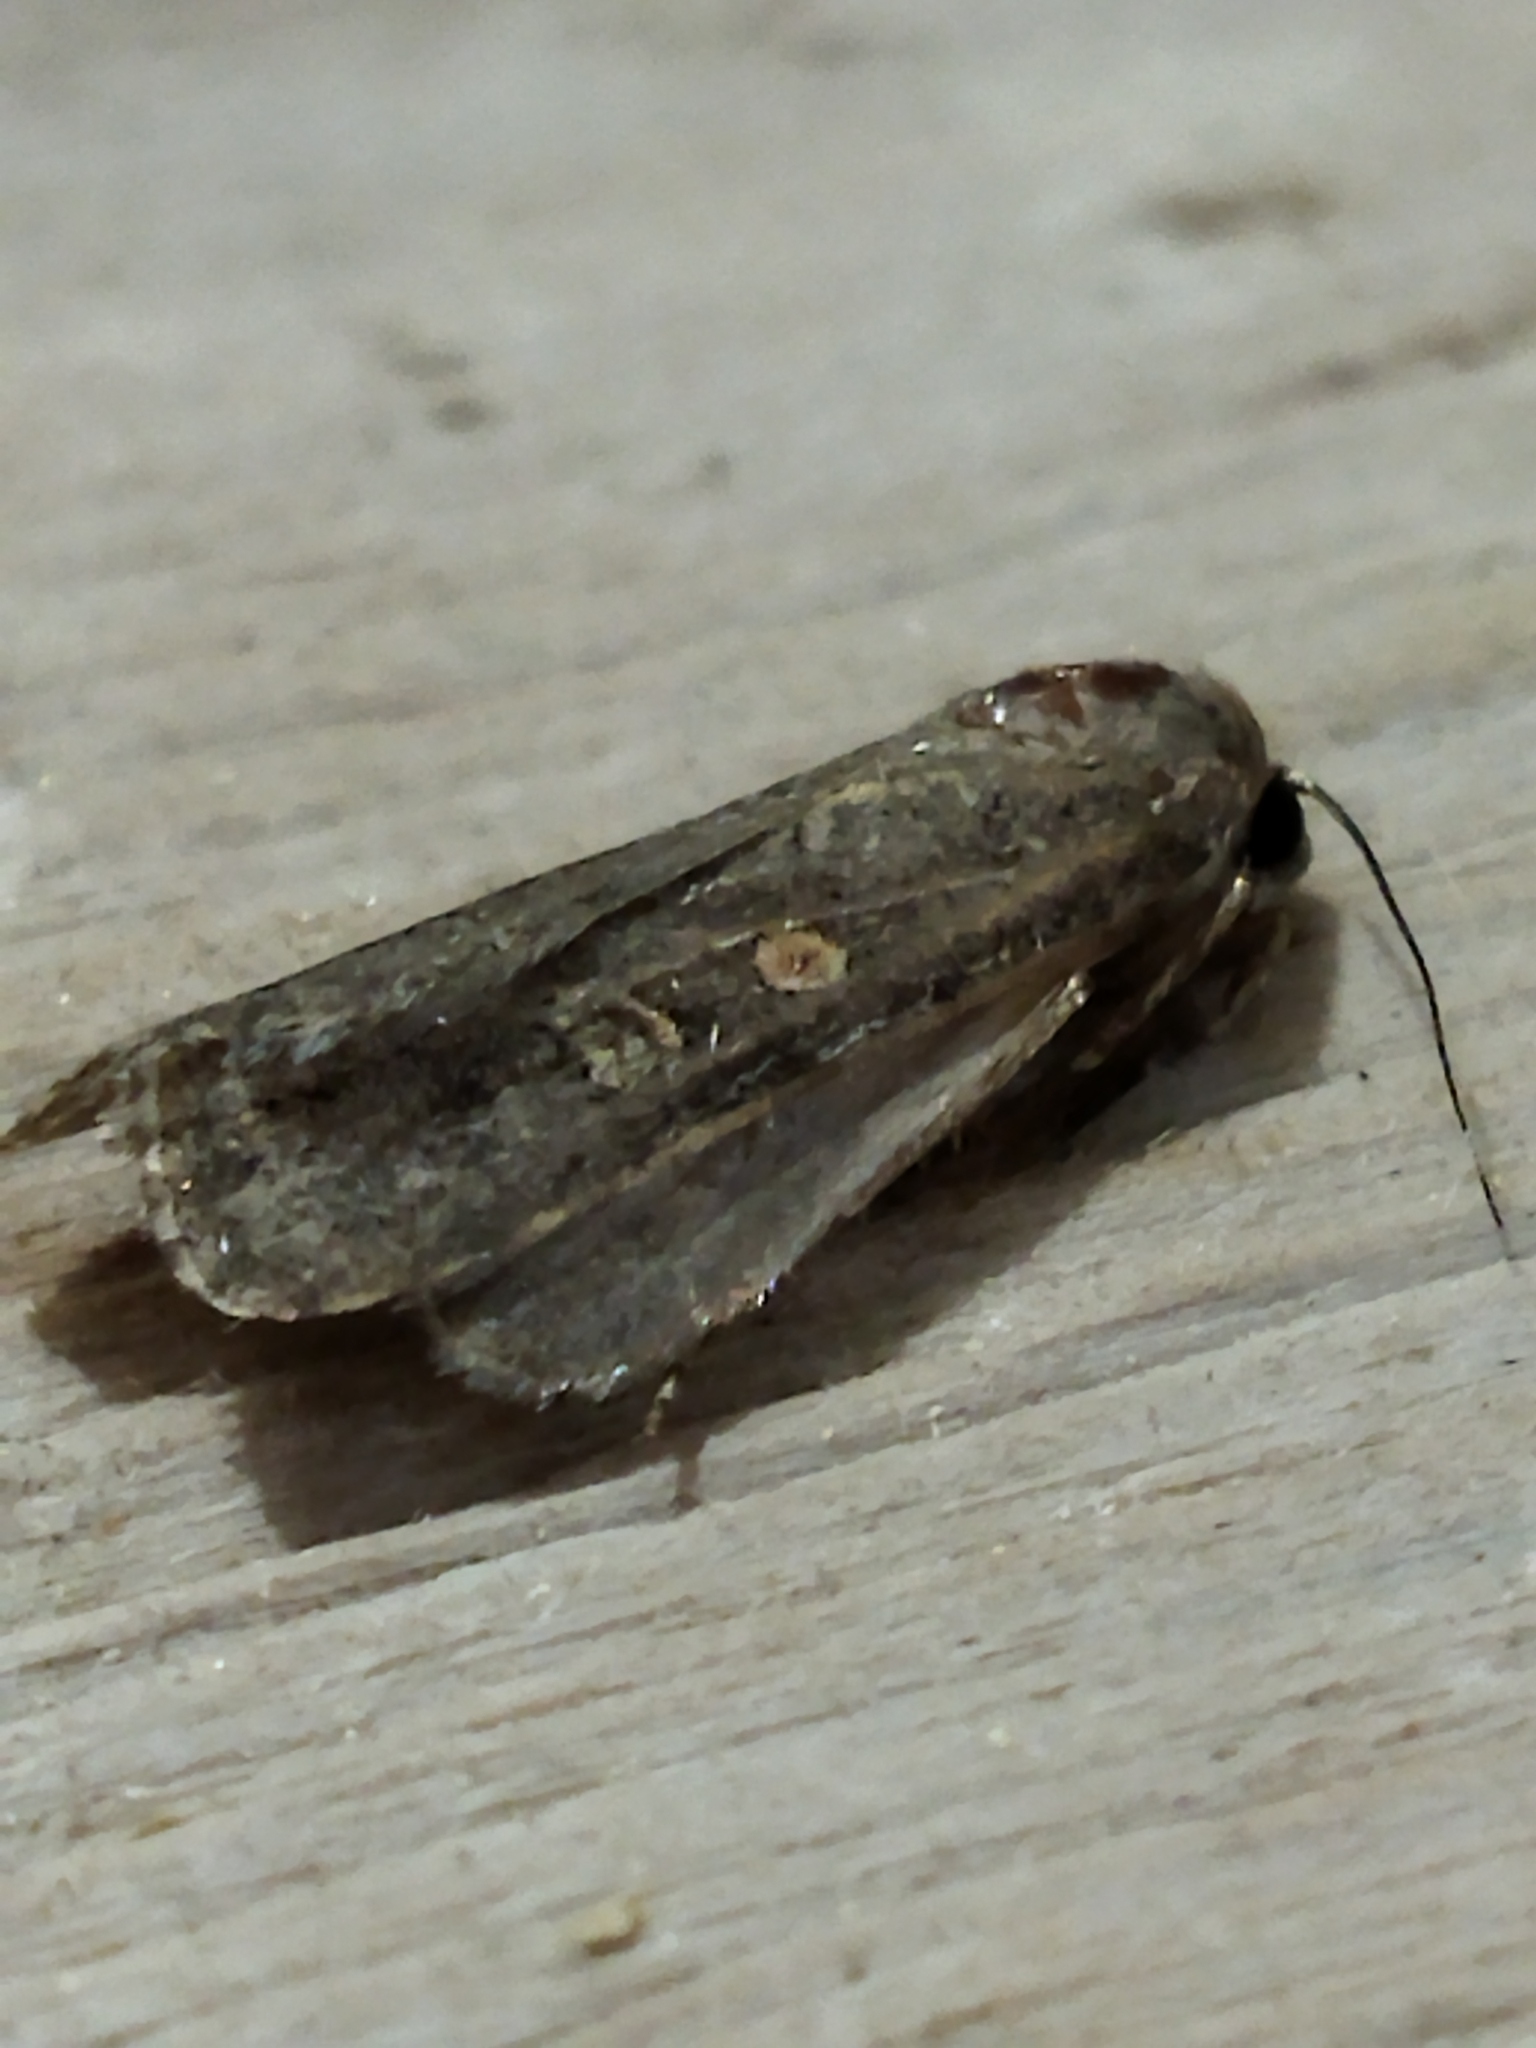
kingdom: Animalia
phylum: Arthropoda
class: Insecta
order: Lepidoptera
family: Noctuidae
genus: Spodoptera
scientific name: Spodoptera exigua
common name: Beet armyworm
